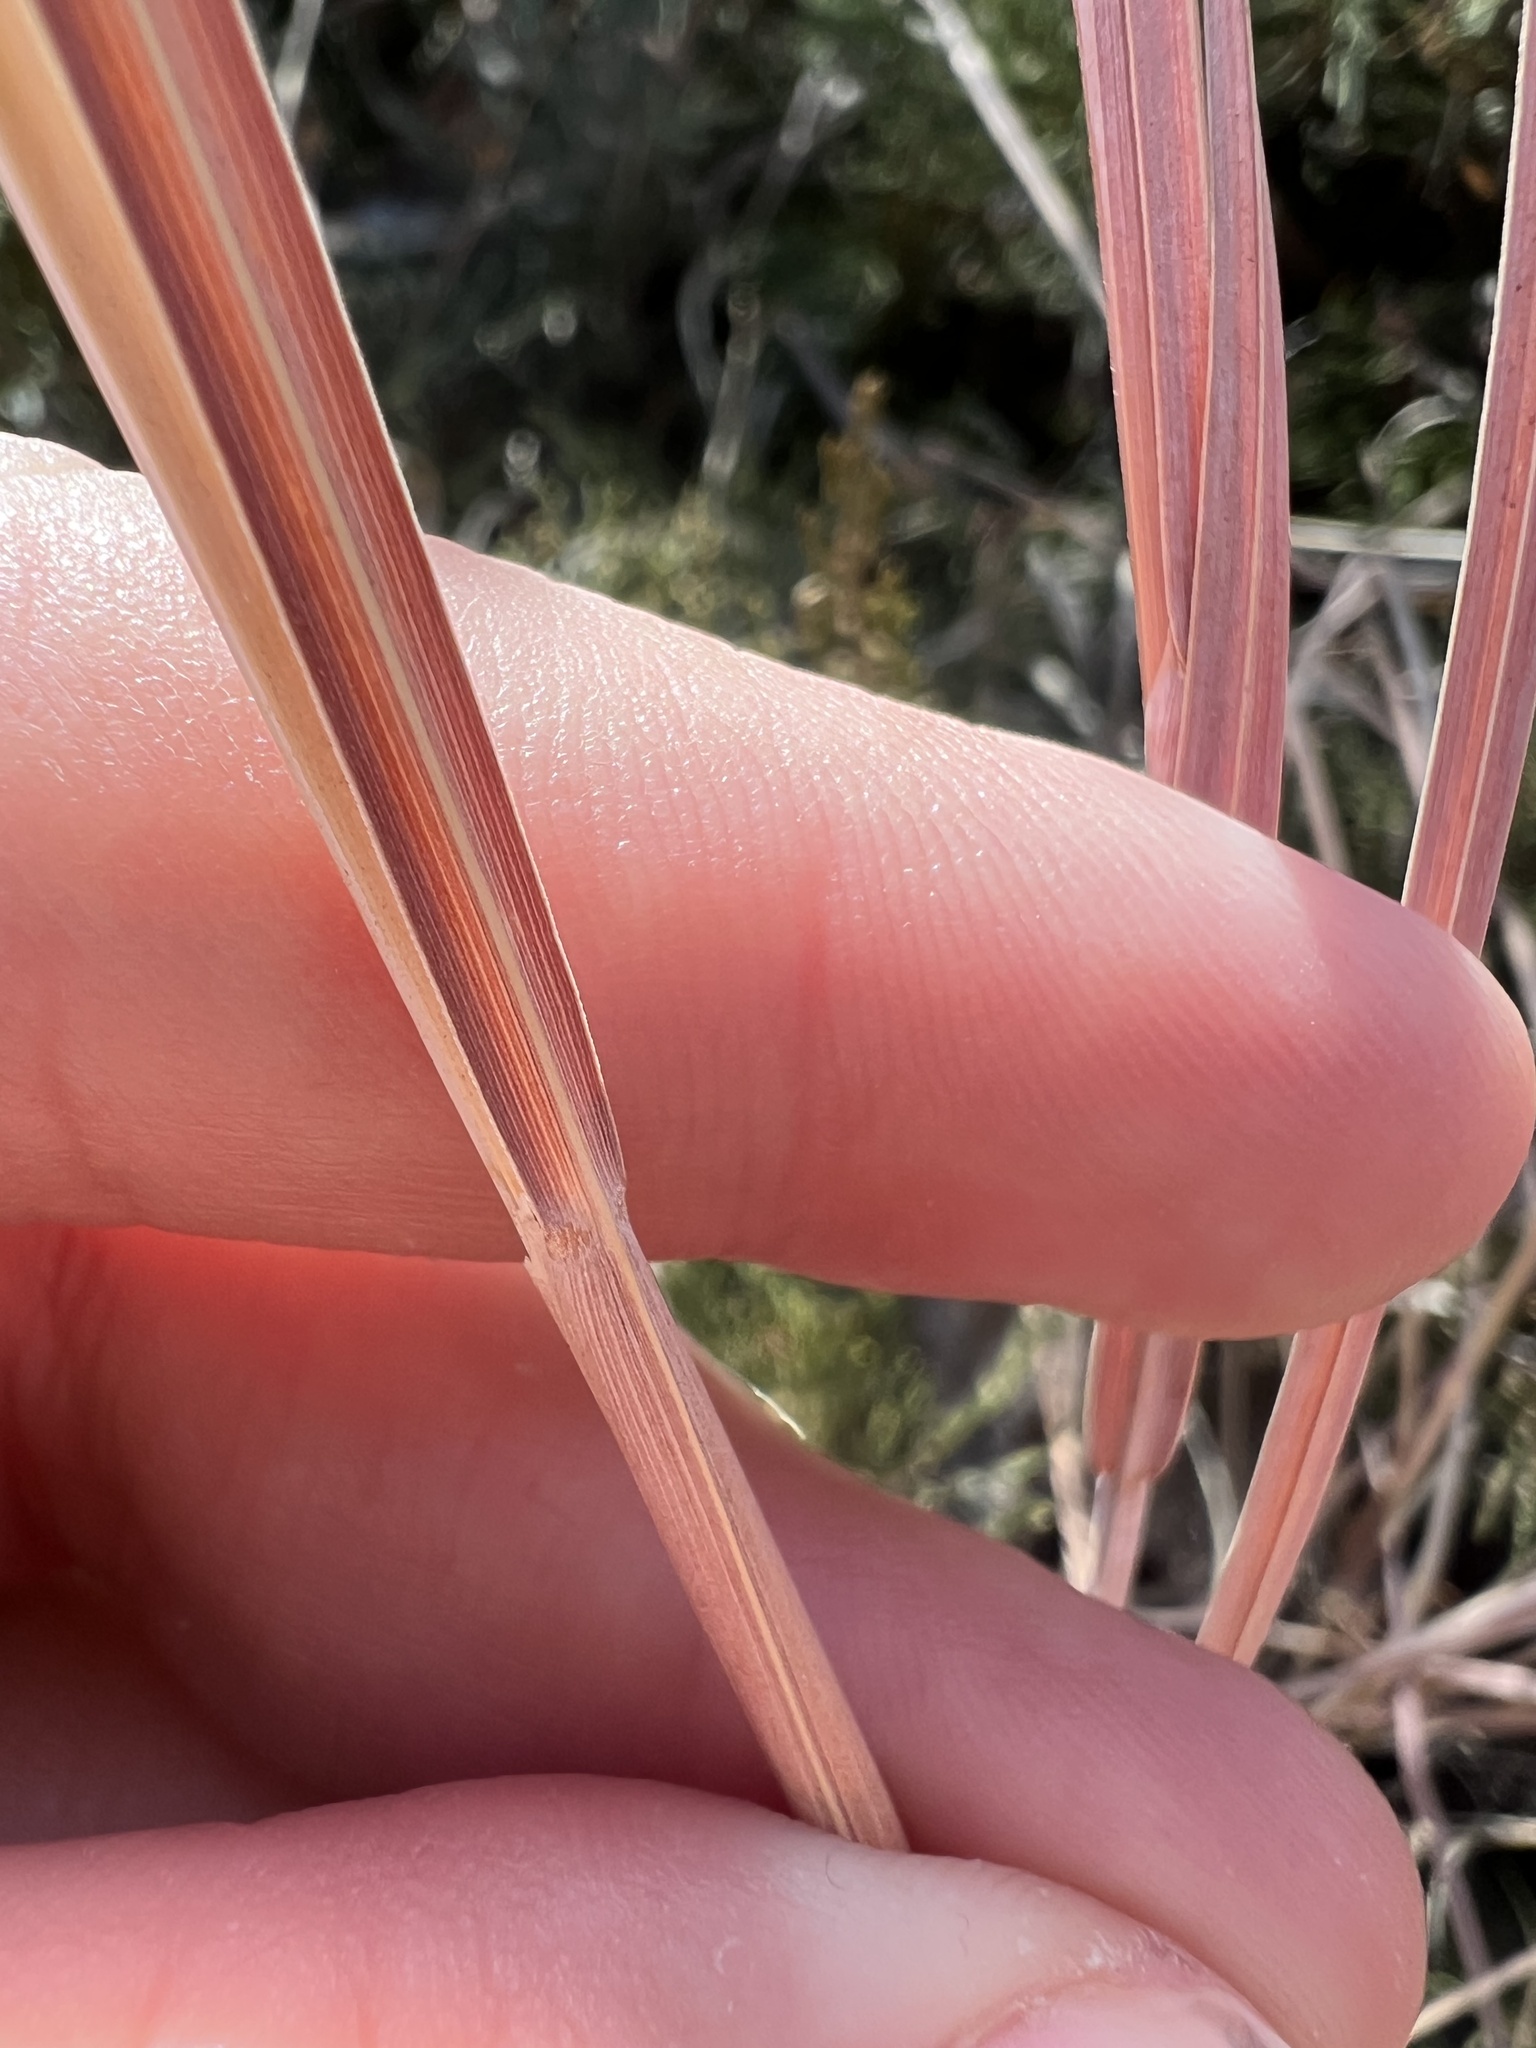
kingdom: Plantae
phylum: Tracheophyta
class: Liliopsida
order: Poales
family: Poaceae
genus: Schizachyrium
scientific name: Schizachyrium scoparium
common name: Little bluestem
